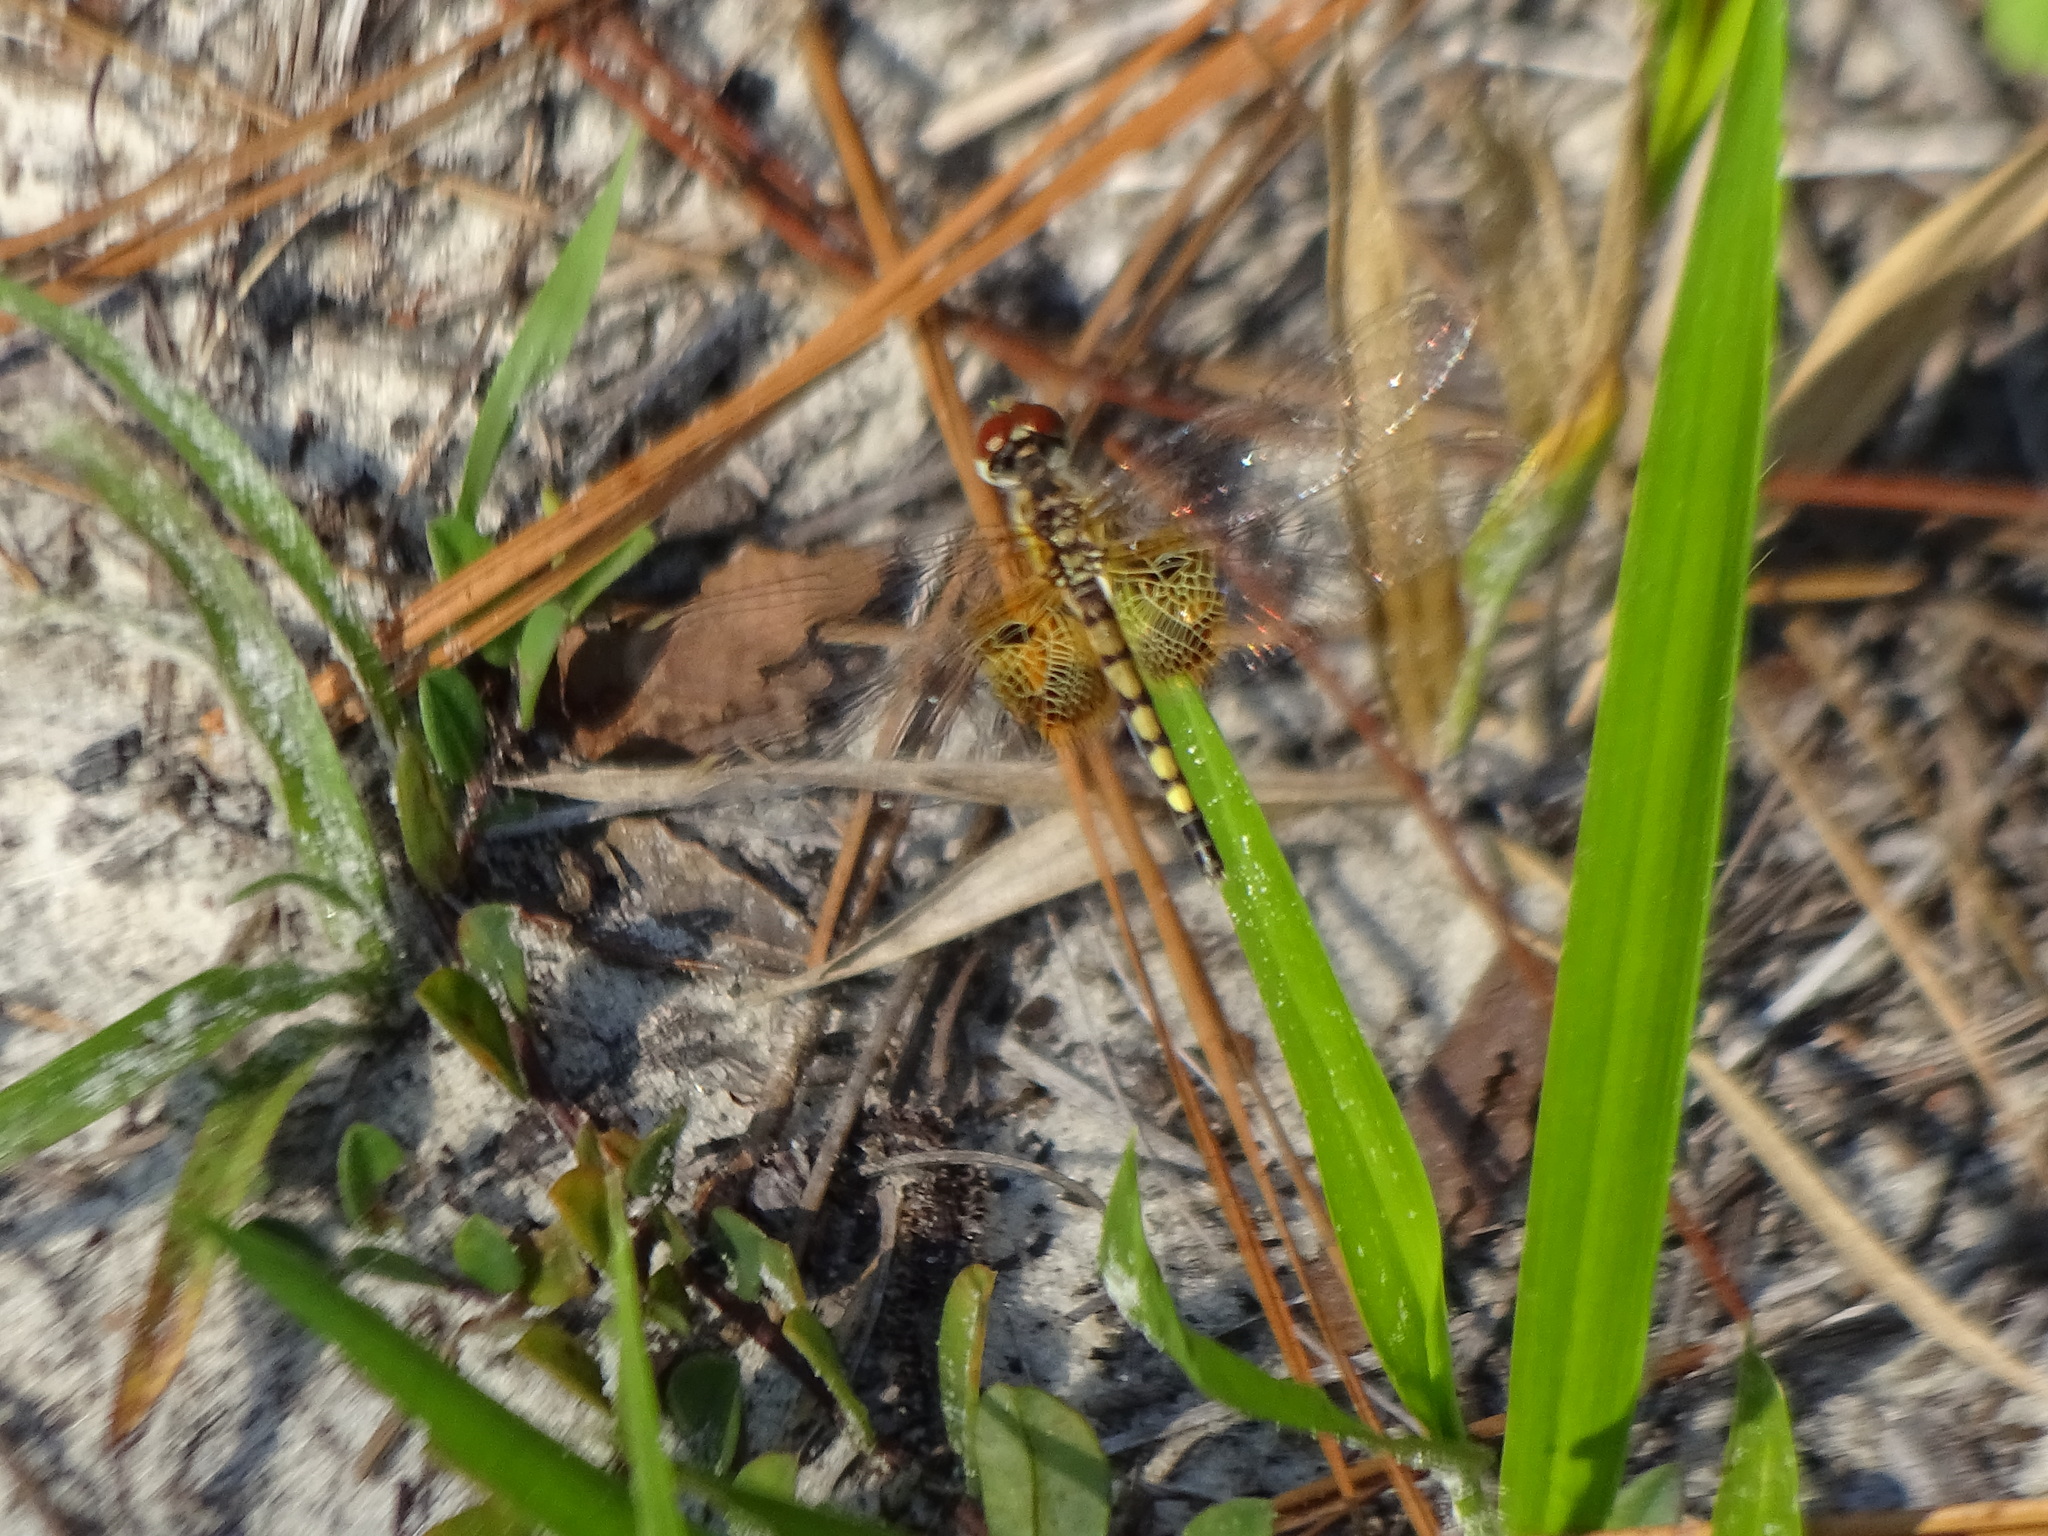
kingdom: Animalia
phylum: Arthropoda
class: Insecta
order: Odonata
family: Libellulidae
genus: Celithemis
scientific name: Celithemis amanda
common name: Amanda's pennant
